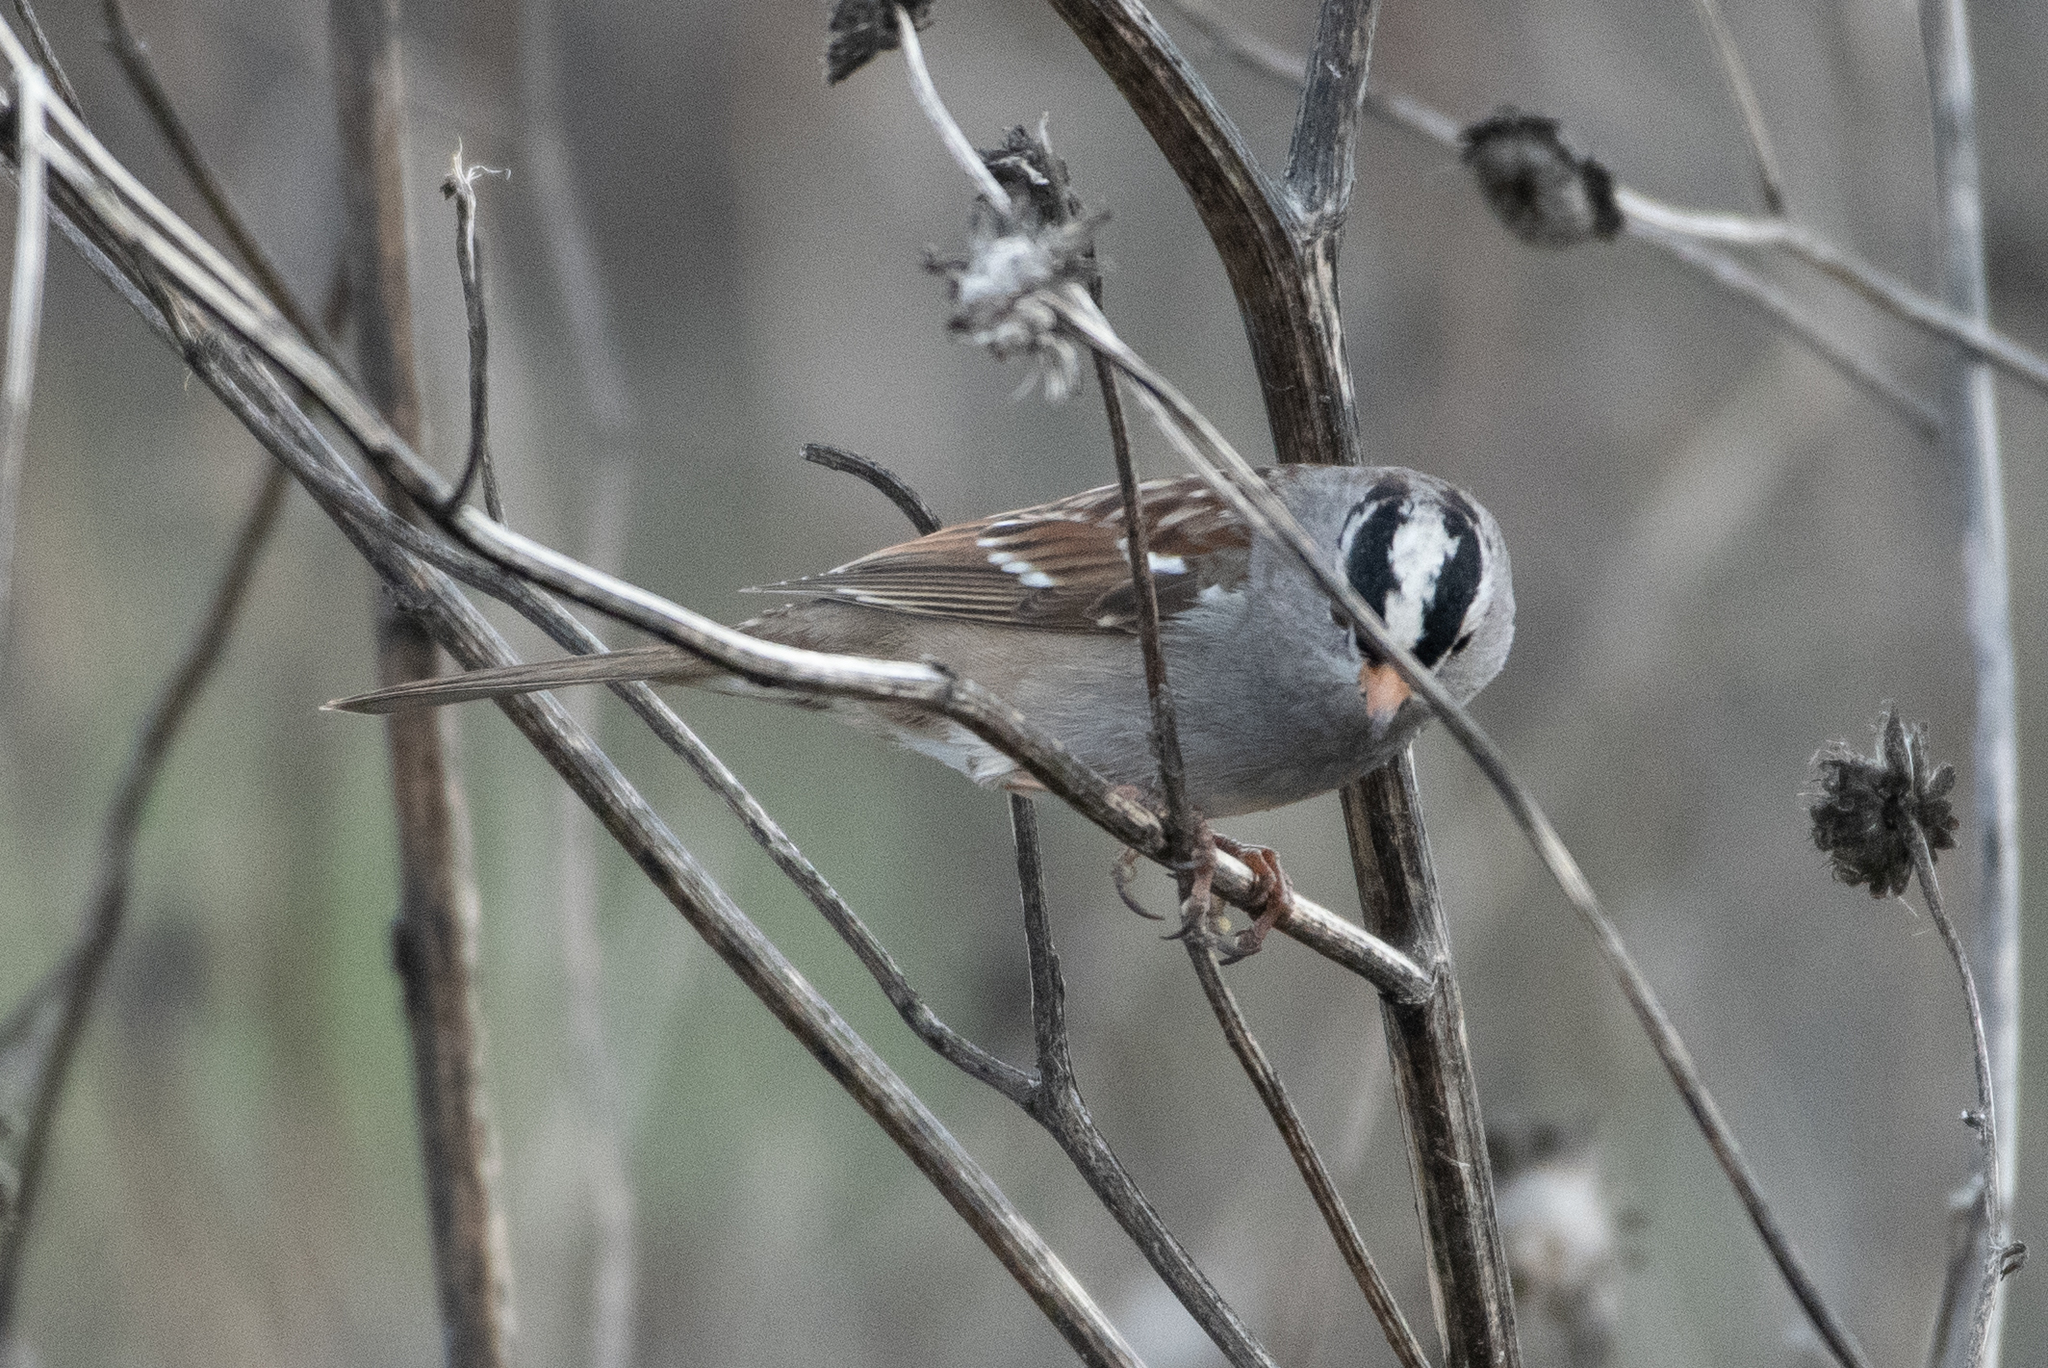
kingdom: Animalia
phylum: Chordata
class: Aves
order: Passeriformes
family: Passerellidae
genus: Zonotrichia
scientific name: Zonotrichia leucophrys
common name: White-crowned sparrow
